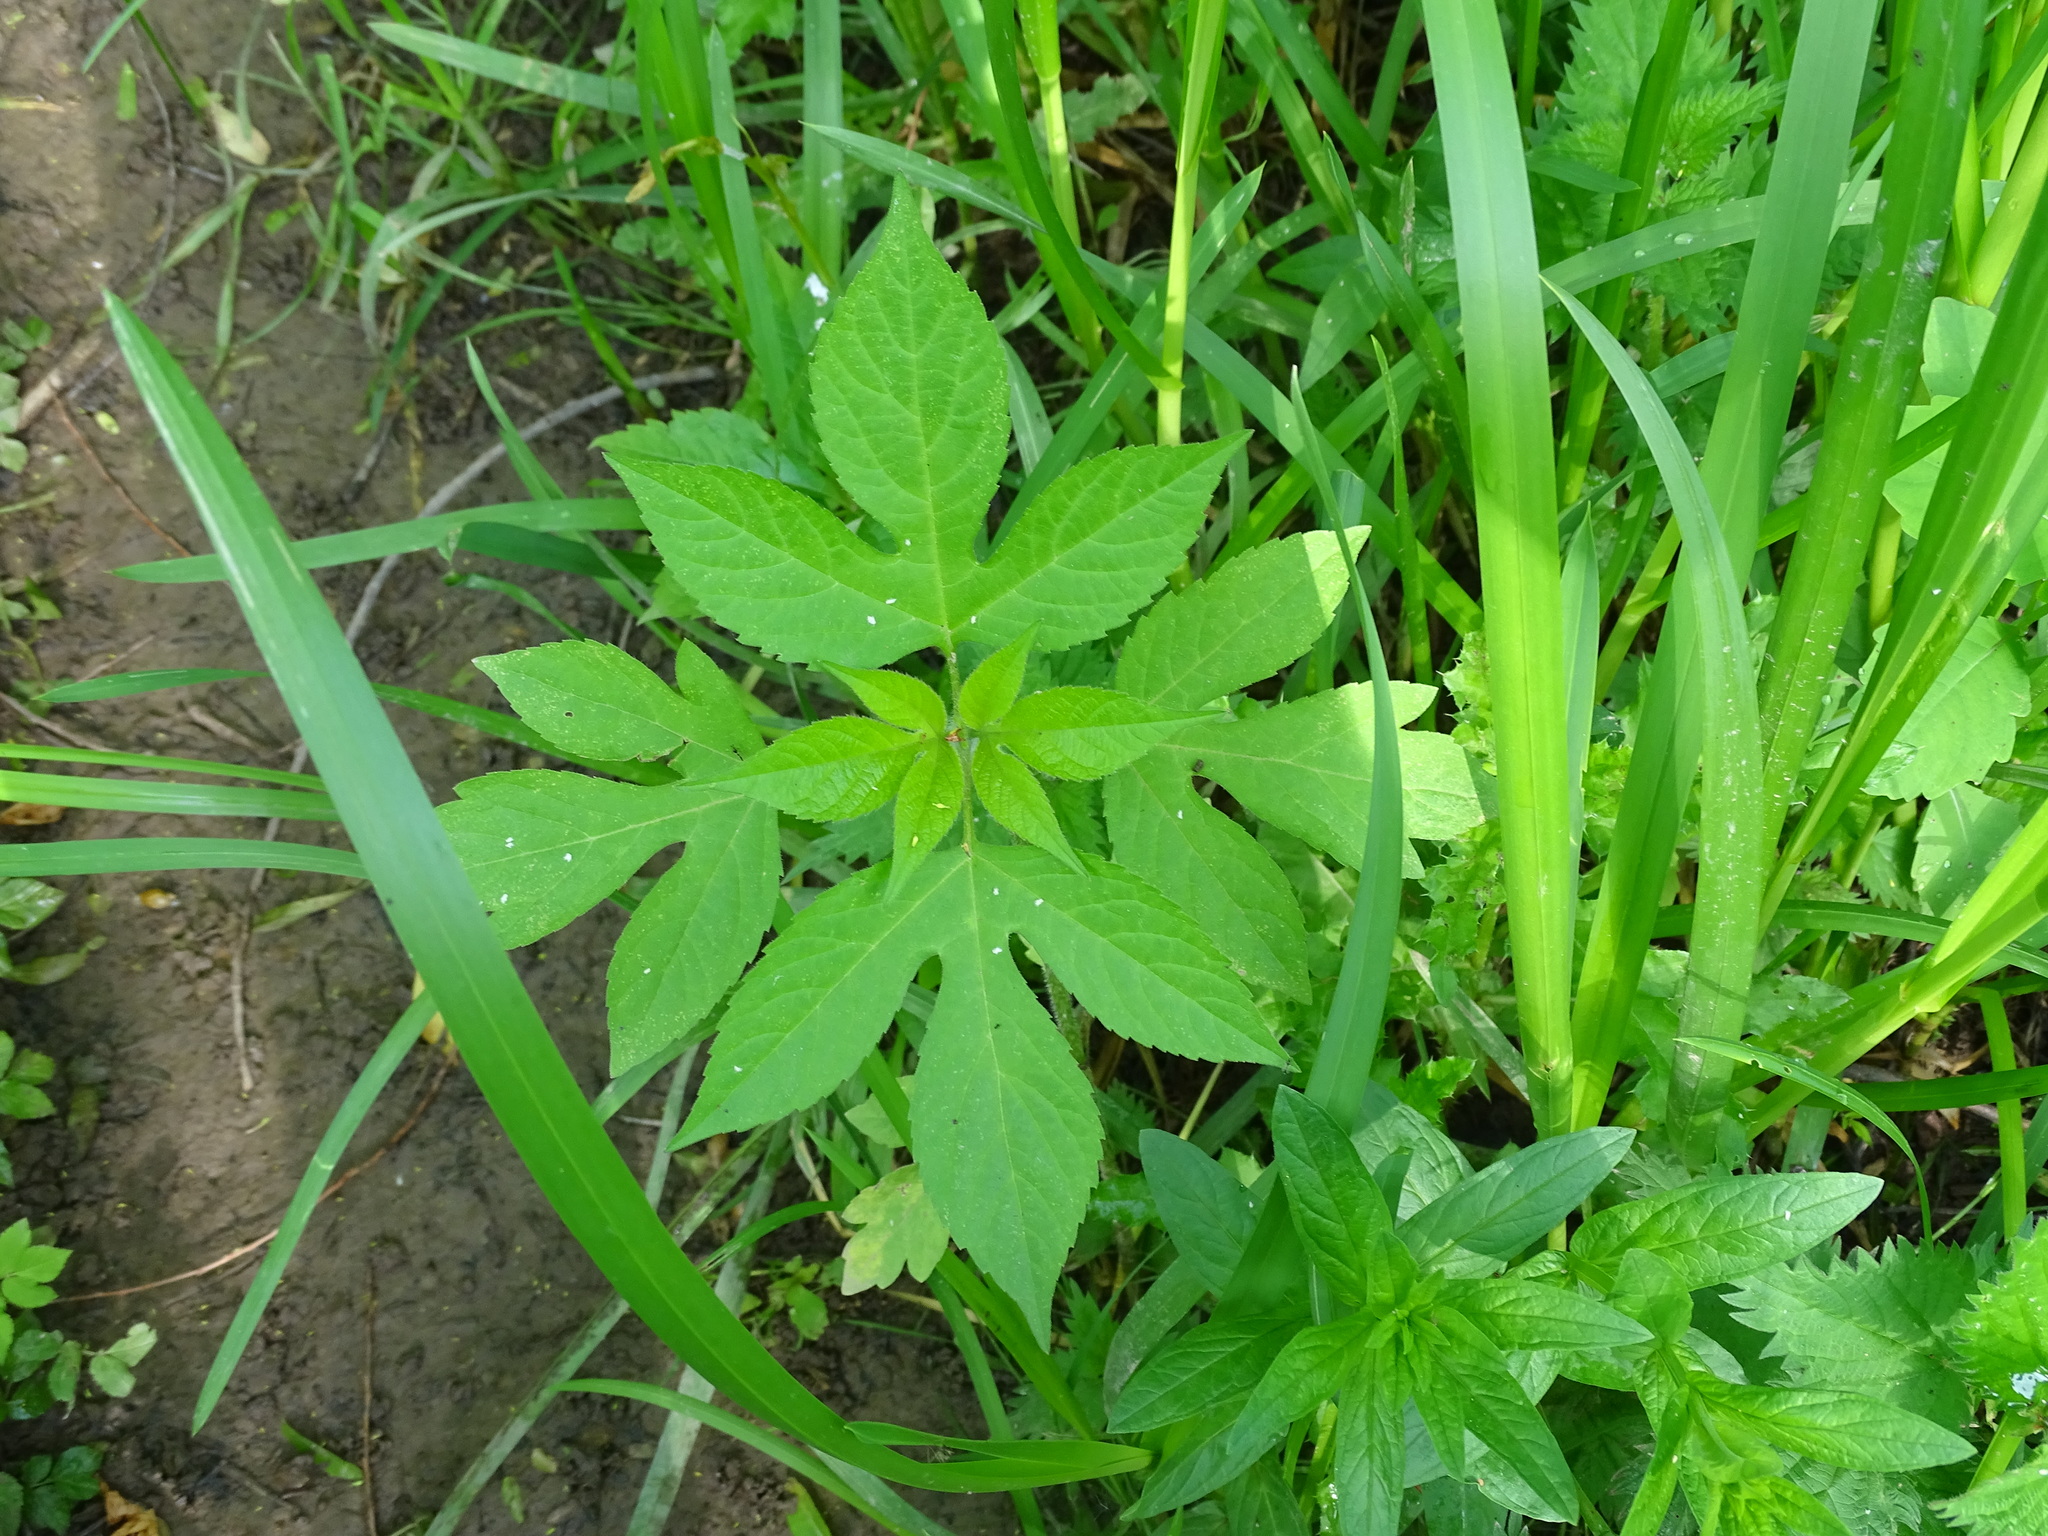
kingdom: Plantae
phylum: Tracheophyta
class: Magnoliopsida
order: Asterales
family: Asteraceae
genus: Ambrosia
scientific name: Ambrosia trifida
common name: Giant ragweed
